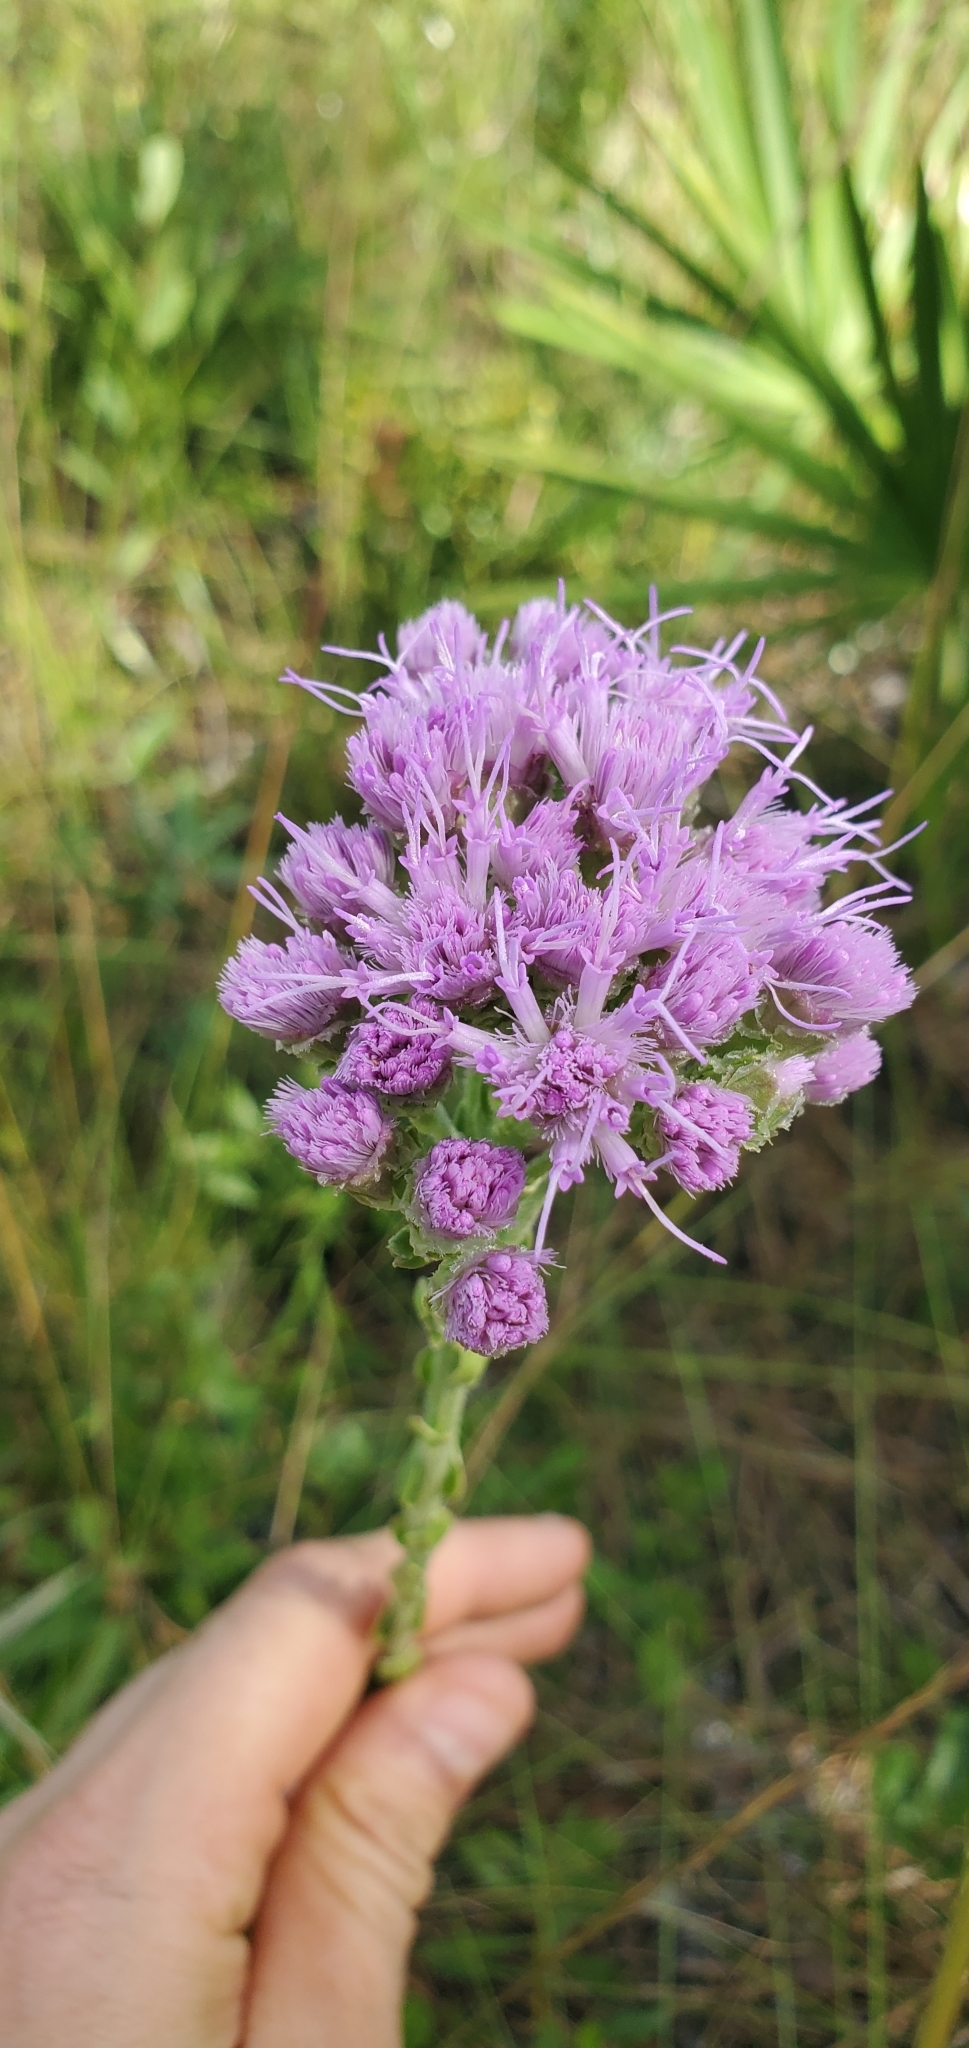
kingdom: Plantae
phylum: Tracheophyta
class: Magnoliopsida
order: Asterales
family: Asteraceae
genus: Carphephorus
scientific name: Carphephorus corymbosus
